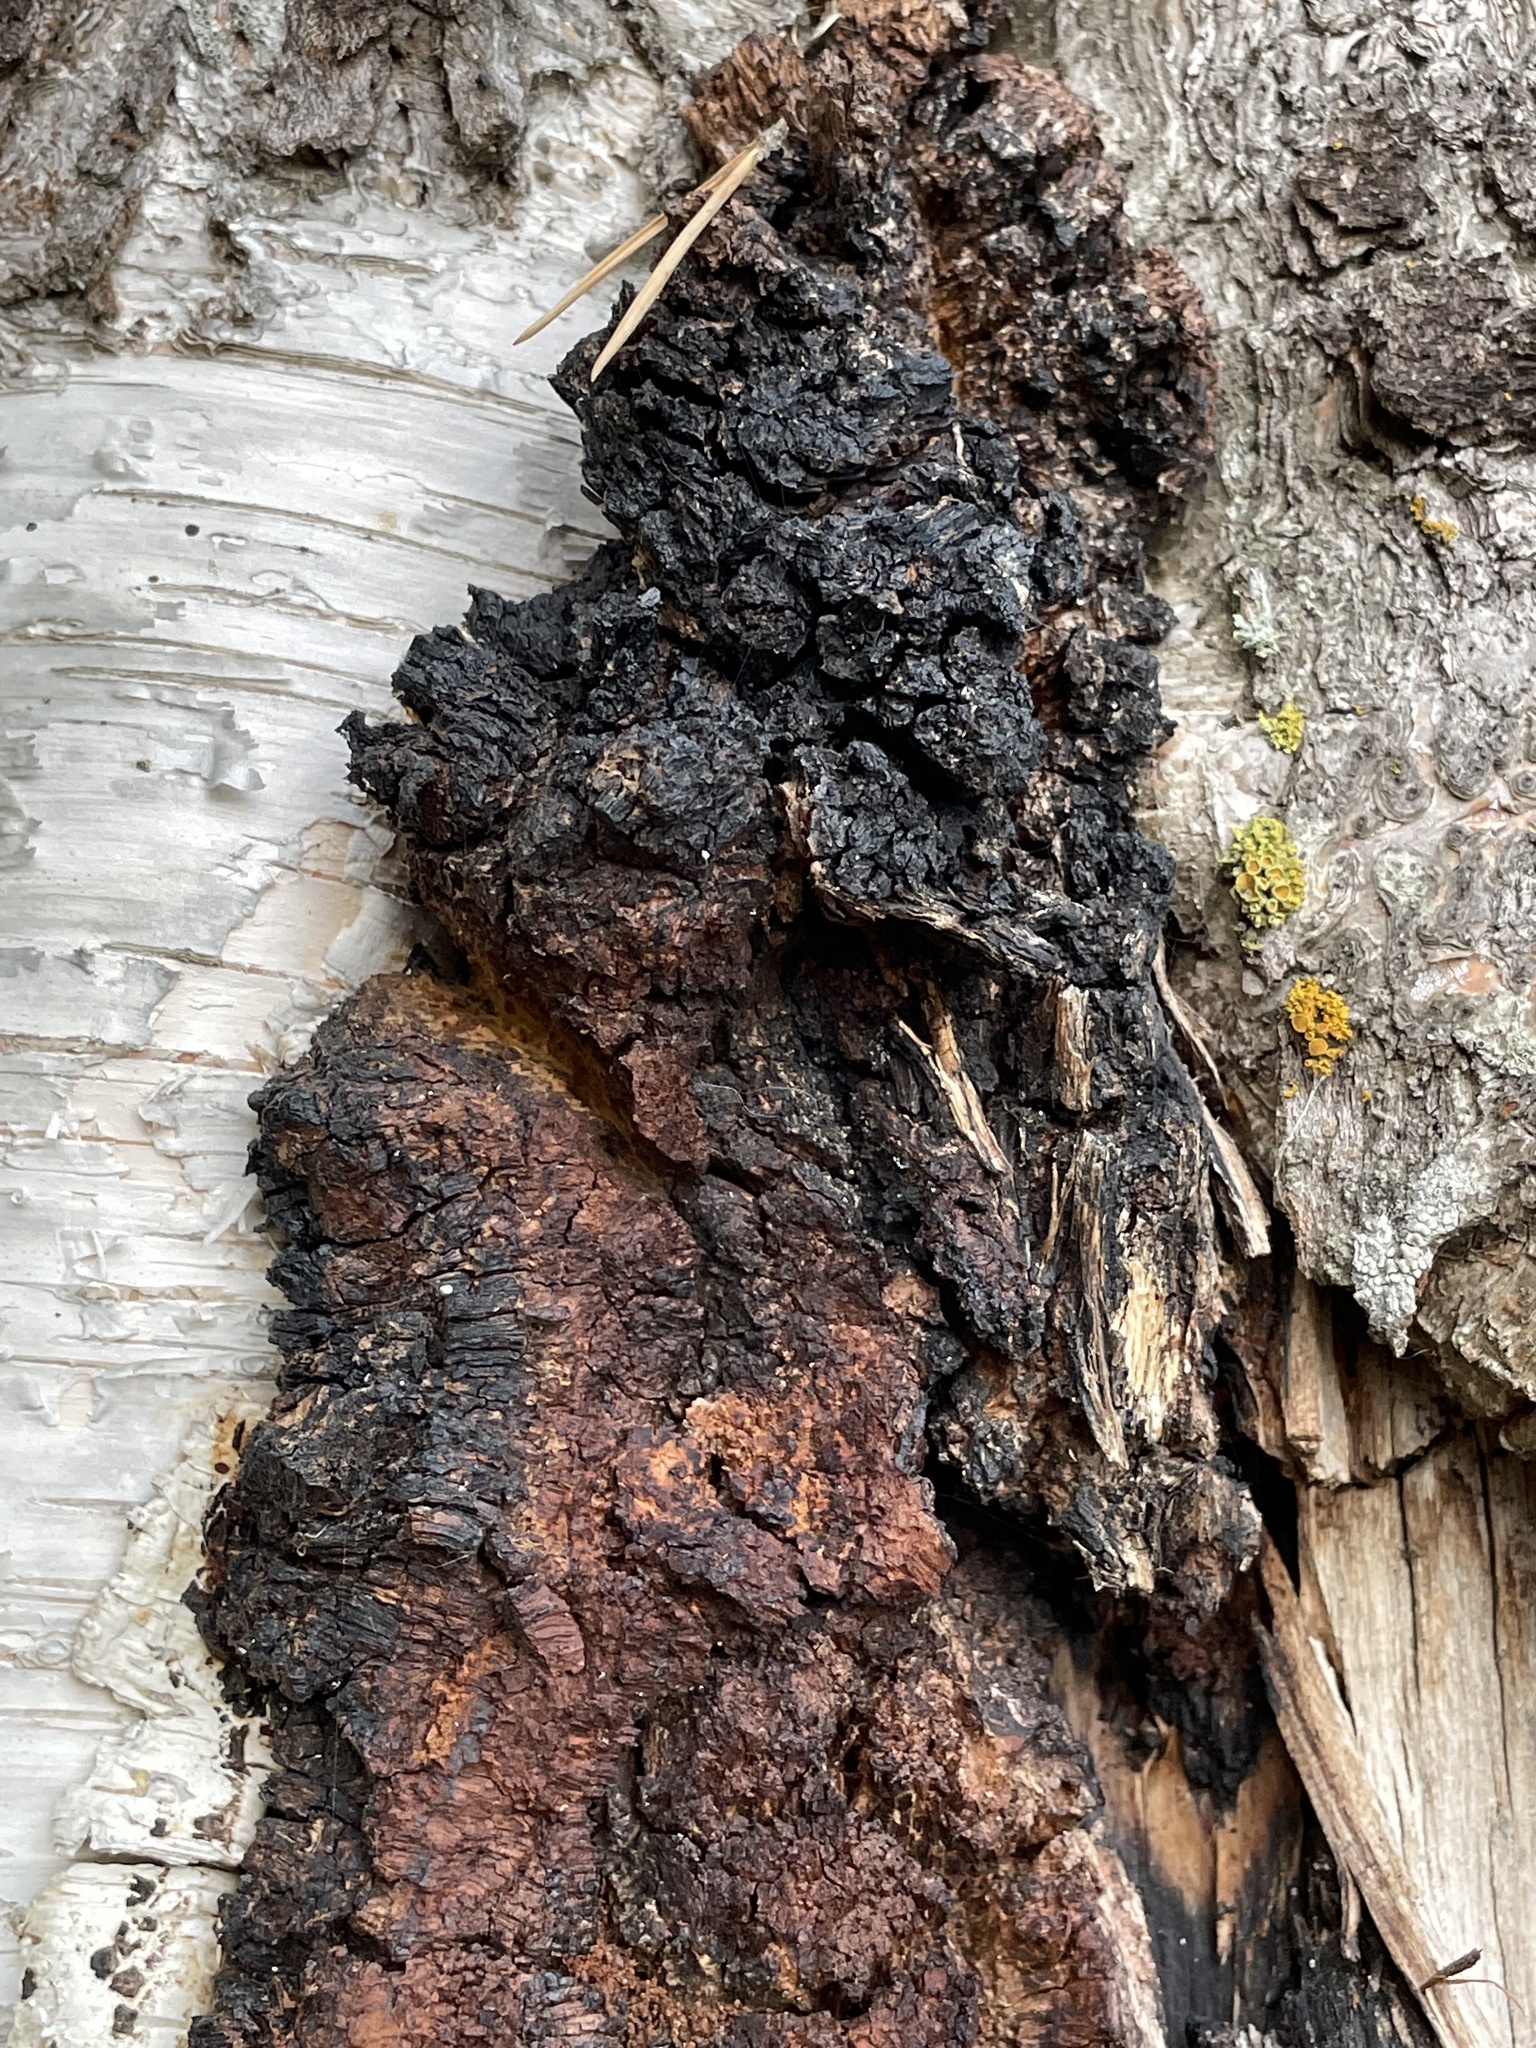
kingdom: Fungi
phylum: Basidiomycota
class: Agaricomycetes
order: Hymenochaetales
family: Hymenochaetaceae
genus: Inonotus
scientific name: Inonotus obliquus
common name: Chaga
